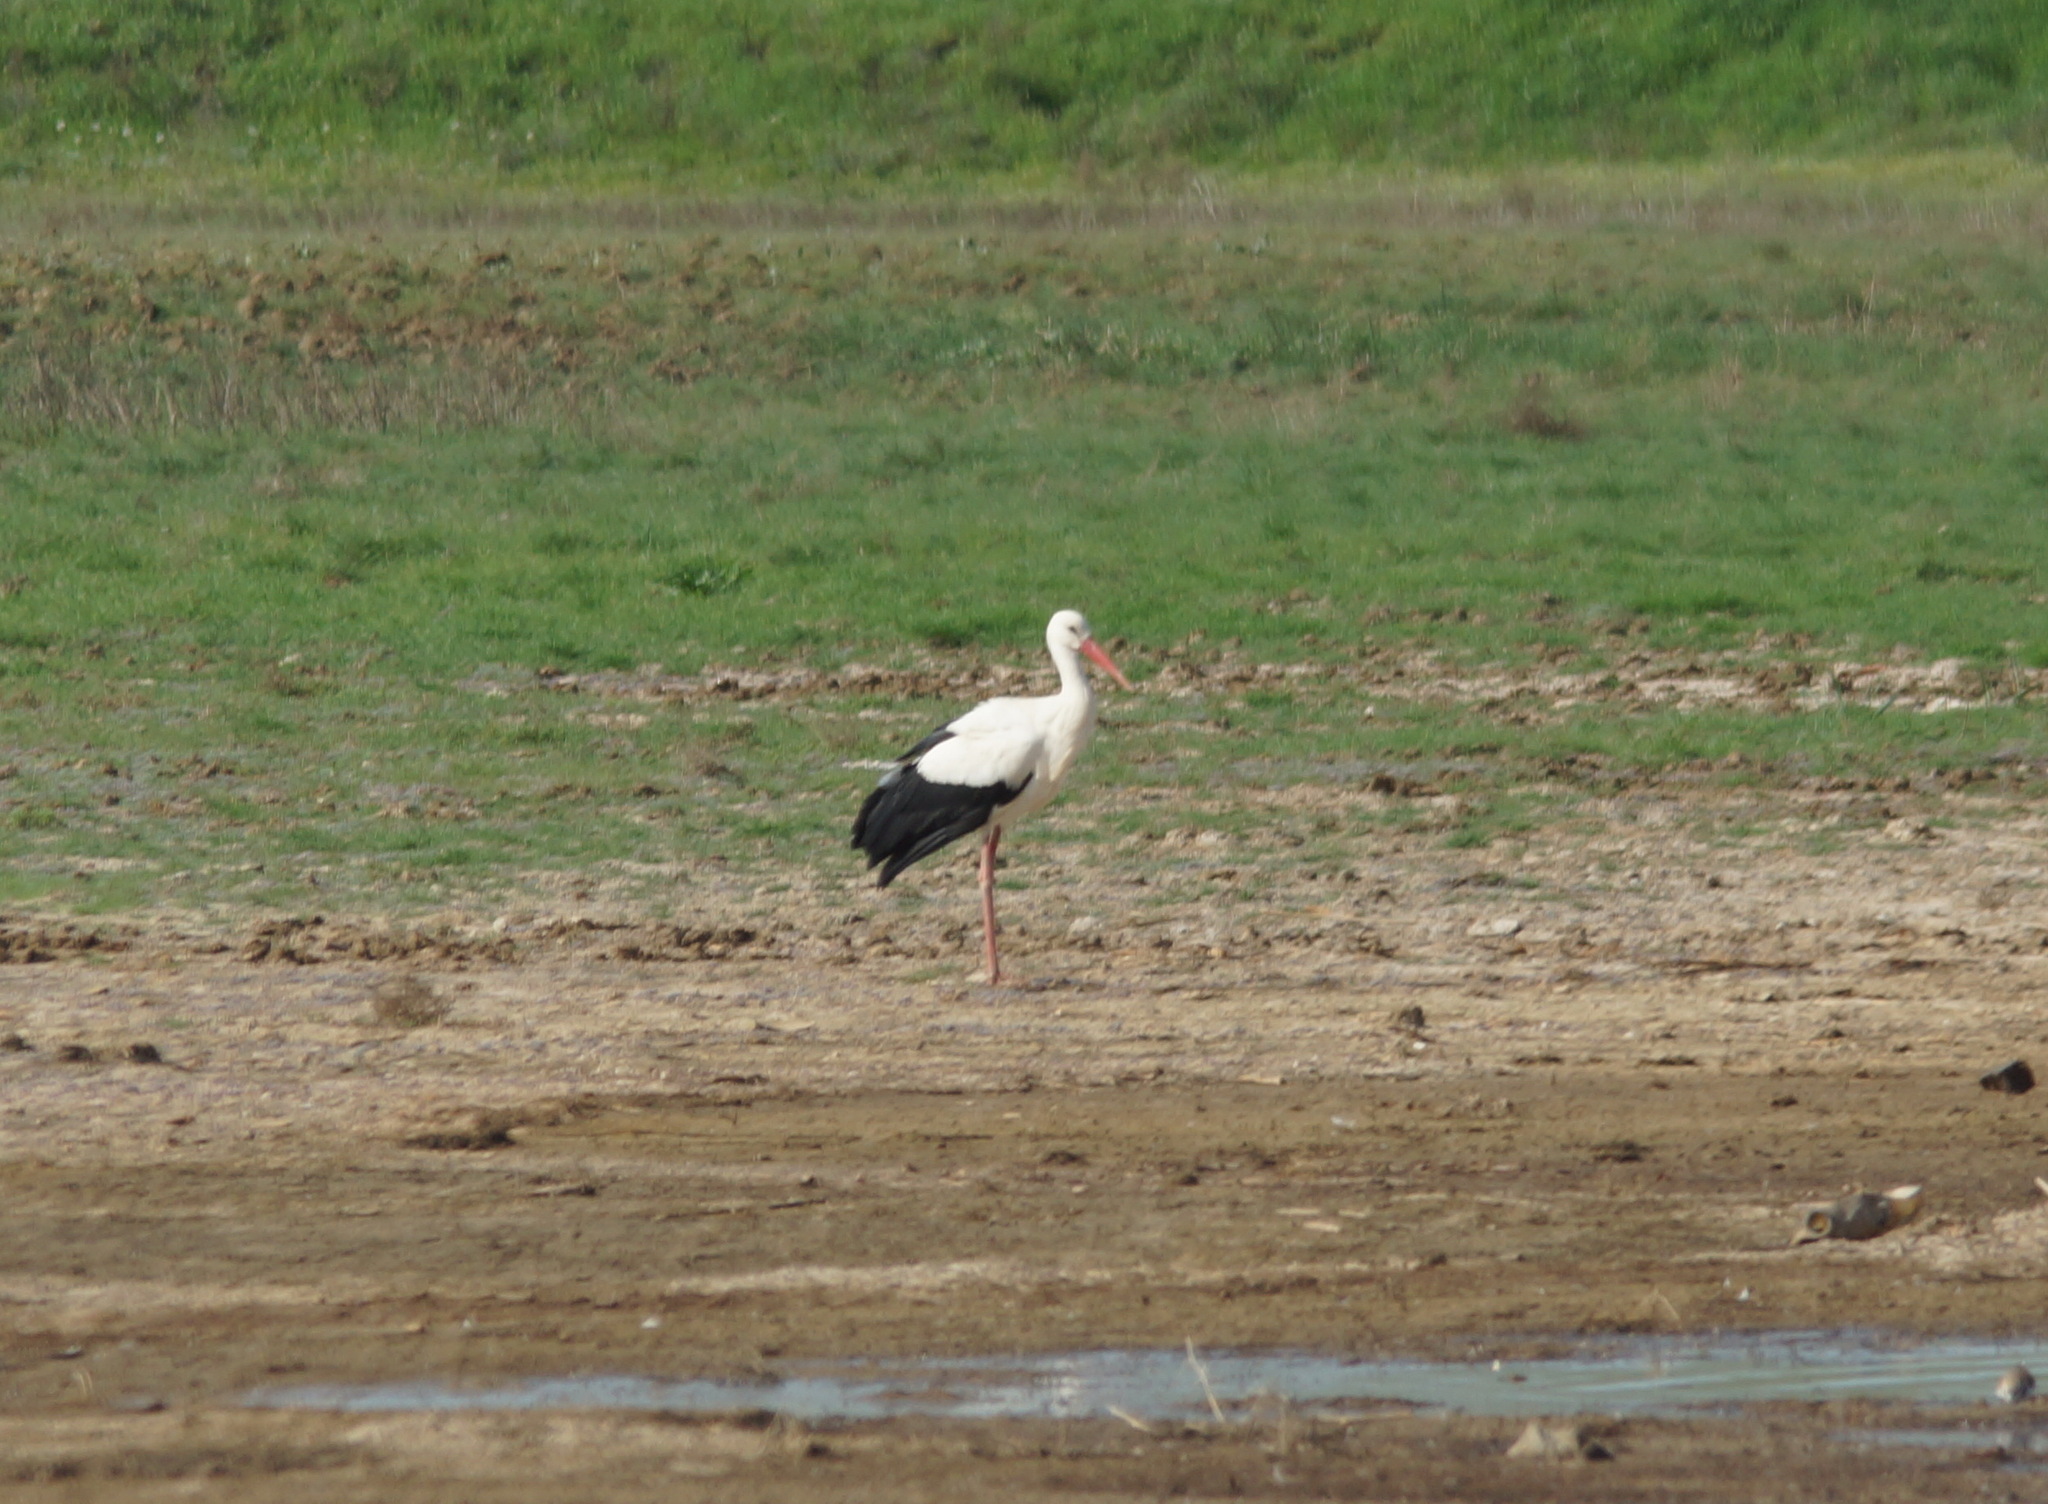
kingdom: Animalia
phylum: Chordata
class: Aves
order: Ciconiiformes
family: Ciconiidae
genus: Ciconia
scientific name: Ciconia ciconia
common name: White stork
